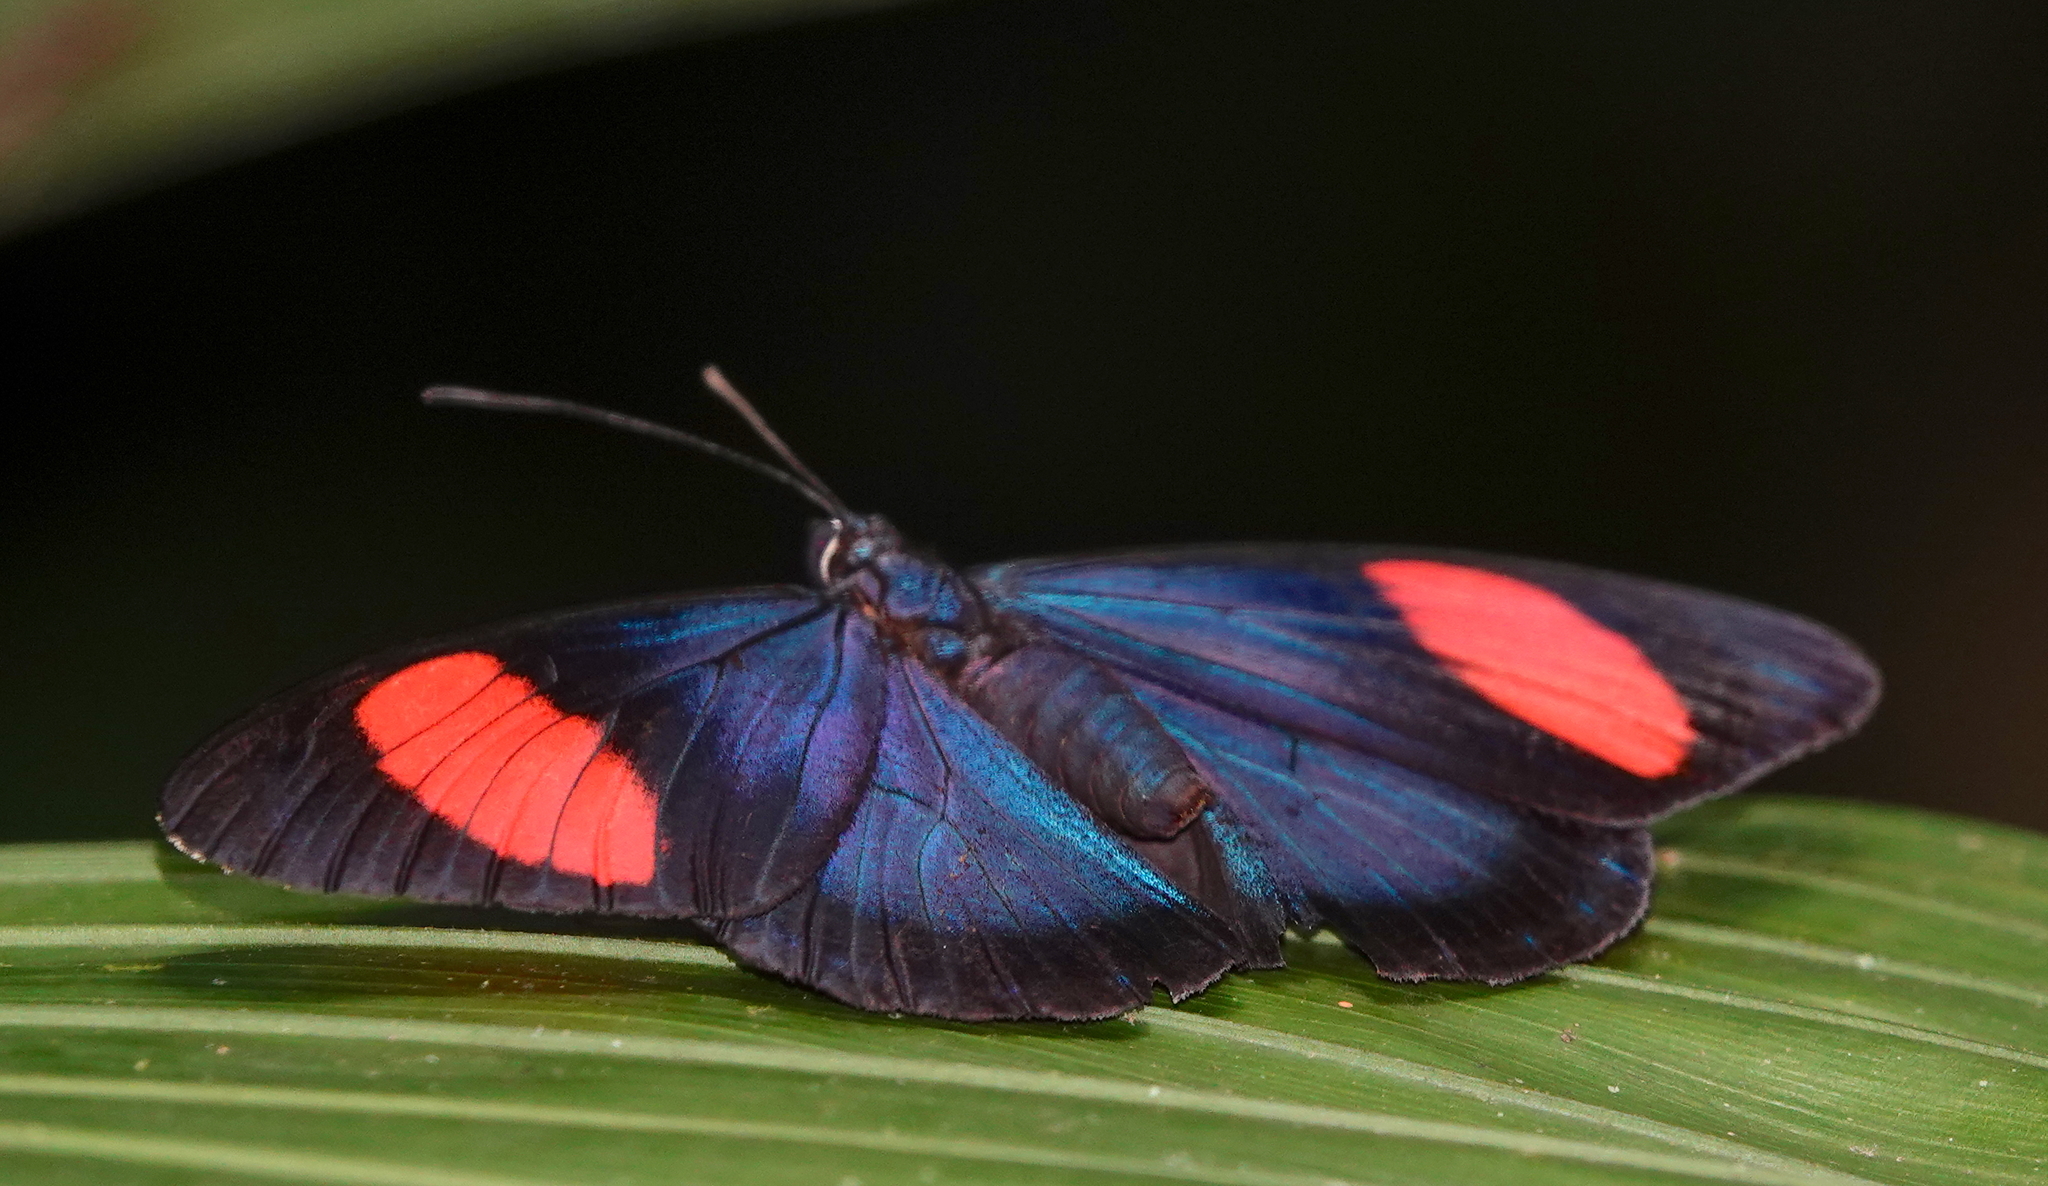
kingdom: Animalia
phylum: Arthropoda
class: Insecta
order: Lepidoptera
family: Nymphalidae
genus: Batesia
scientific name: Batesia hypochlora
